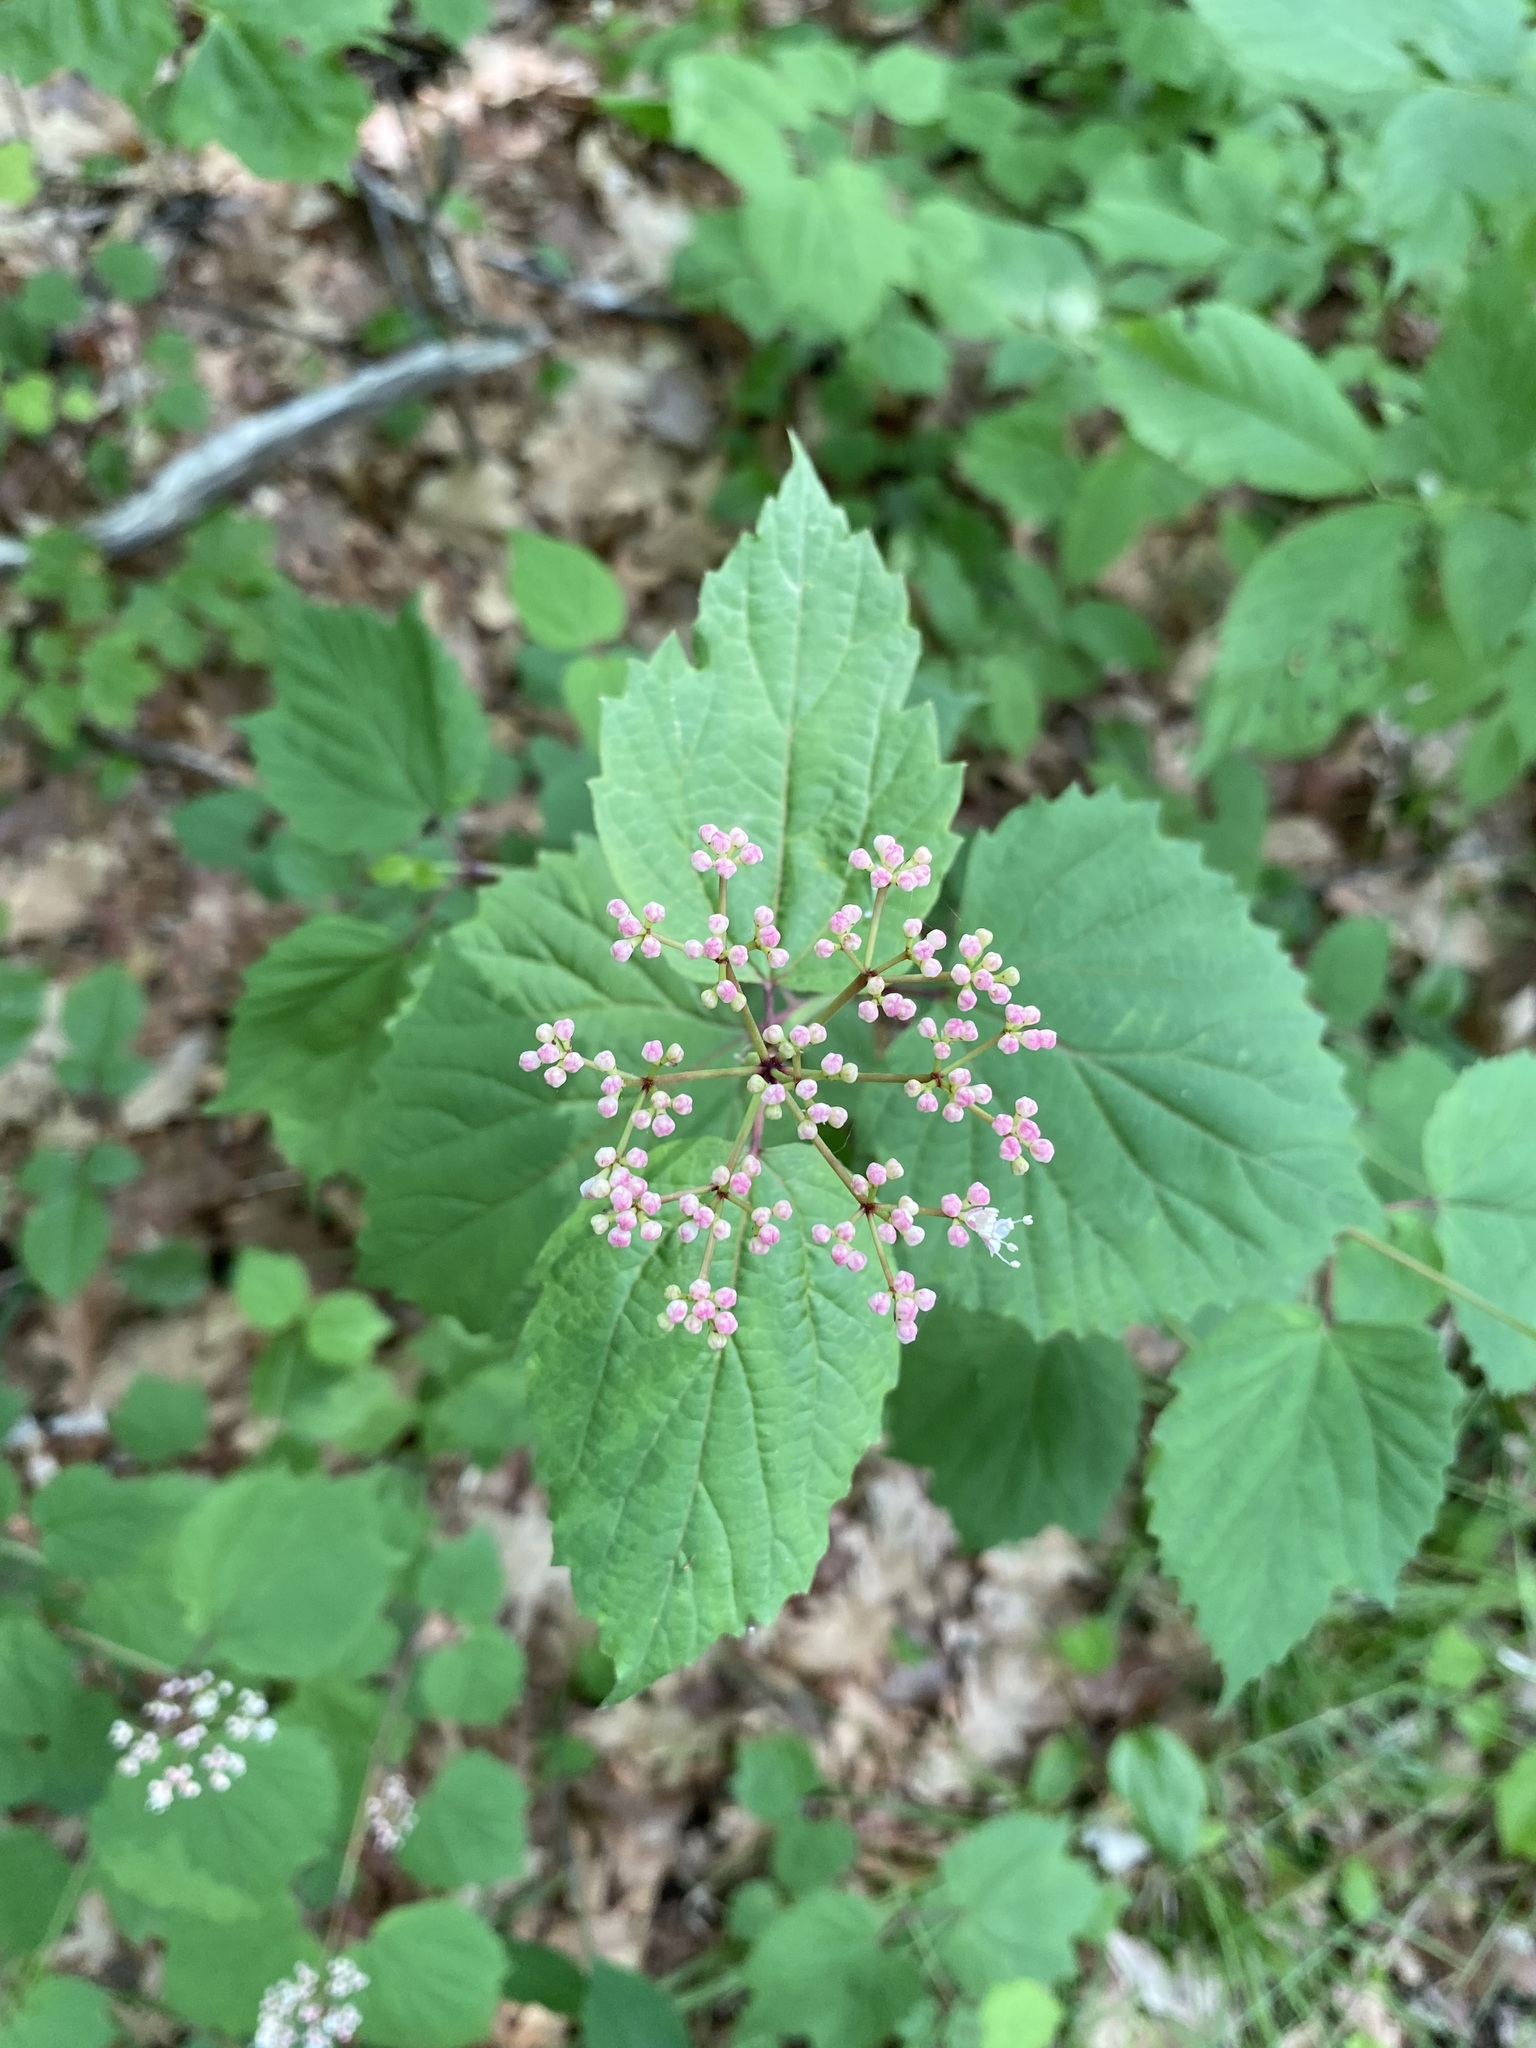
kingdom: Plantae
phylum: Tracheophyta
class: Magnoliopsida
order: Dipsacales
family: Viburnaceae
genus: Viburnum
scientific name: Viburnum acerifolium
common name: Dockmackie
